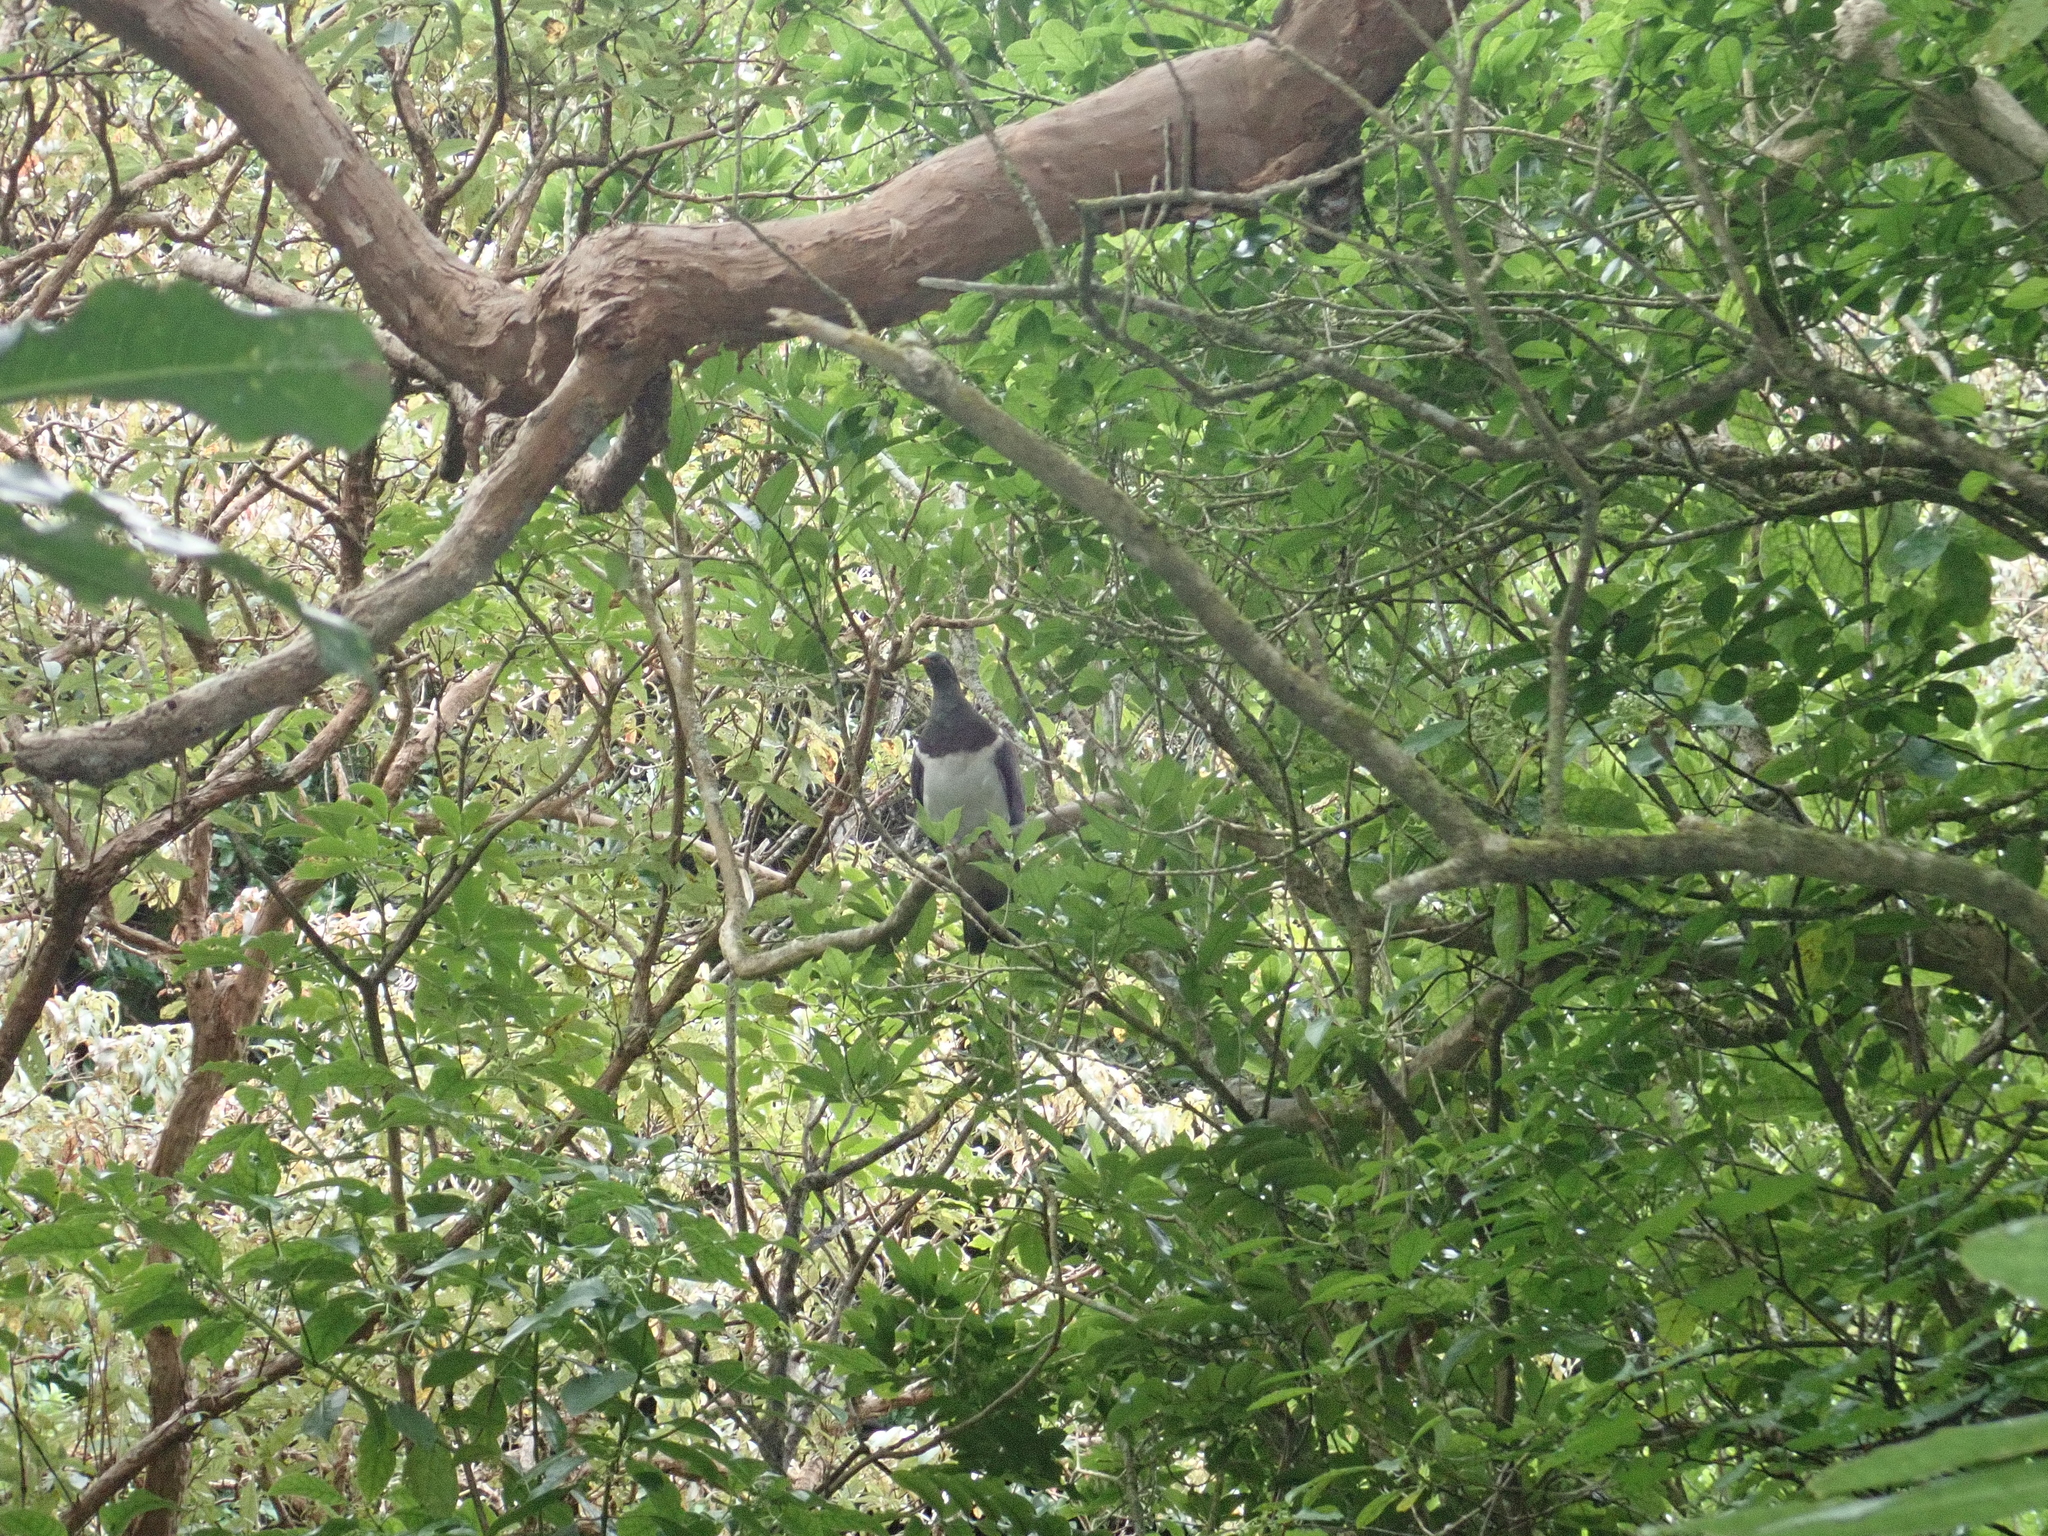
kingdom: Animalia
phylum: Chordata
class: Aves
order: Columbiformes
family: Columbidae
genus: Hemiphaga
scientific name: Hemiphaga novaeseelandiae
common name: New zealand pigeon
